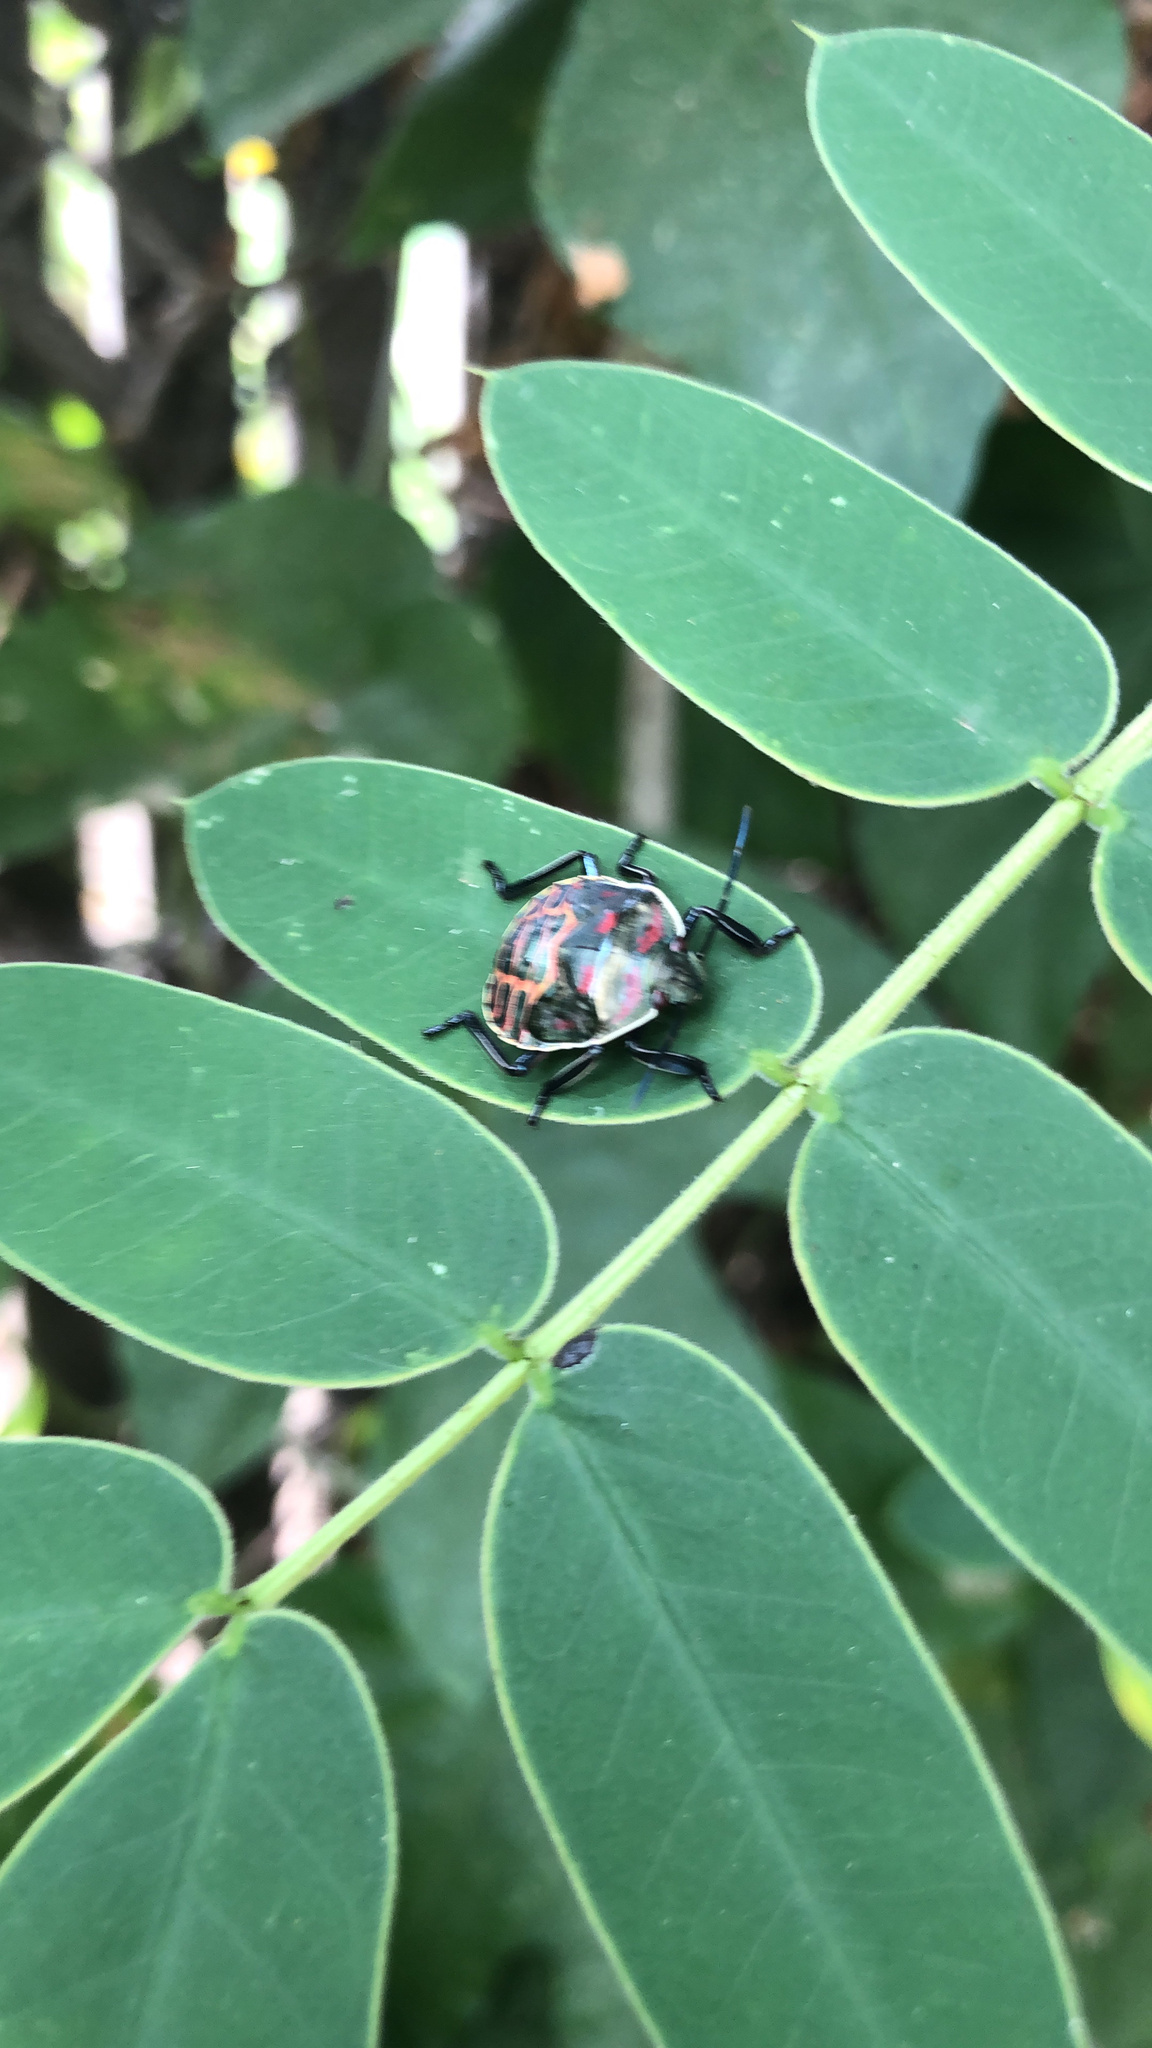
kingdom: Animalia
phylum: Arthropoda
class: Insecta
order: Hemiptera
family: Pentatomidae
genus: Pellaea
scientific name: Pellaea stictica
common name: Stink bug
